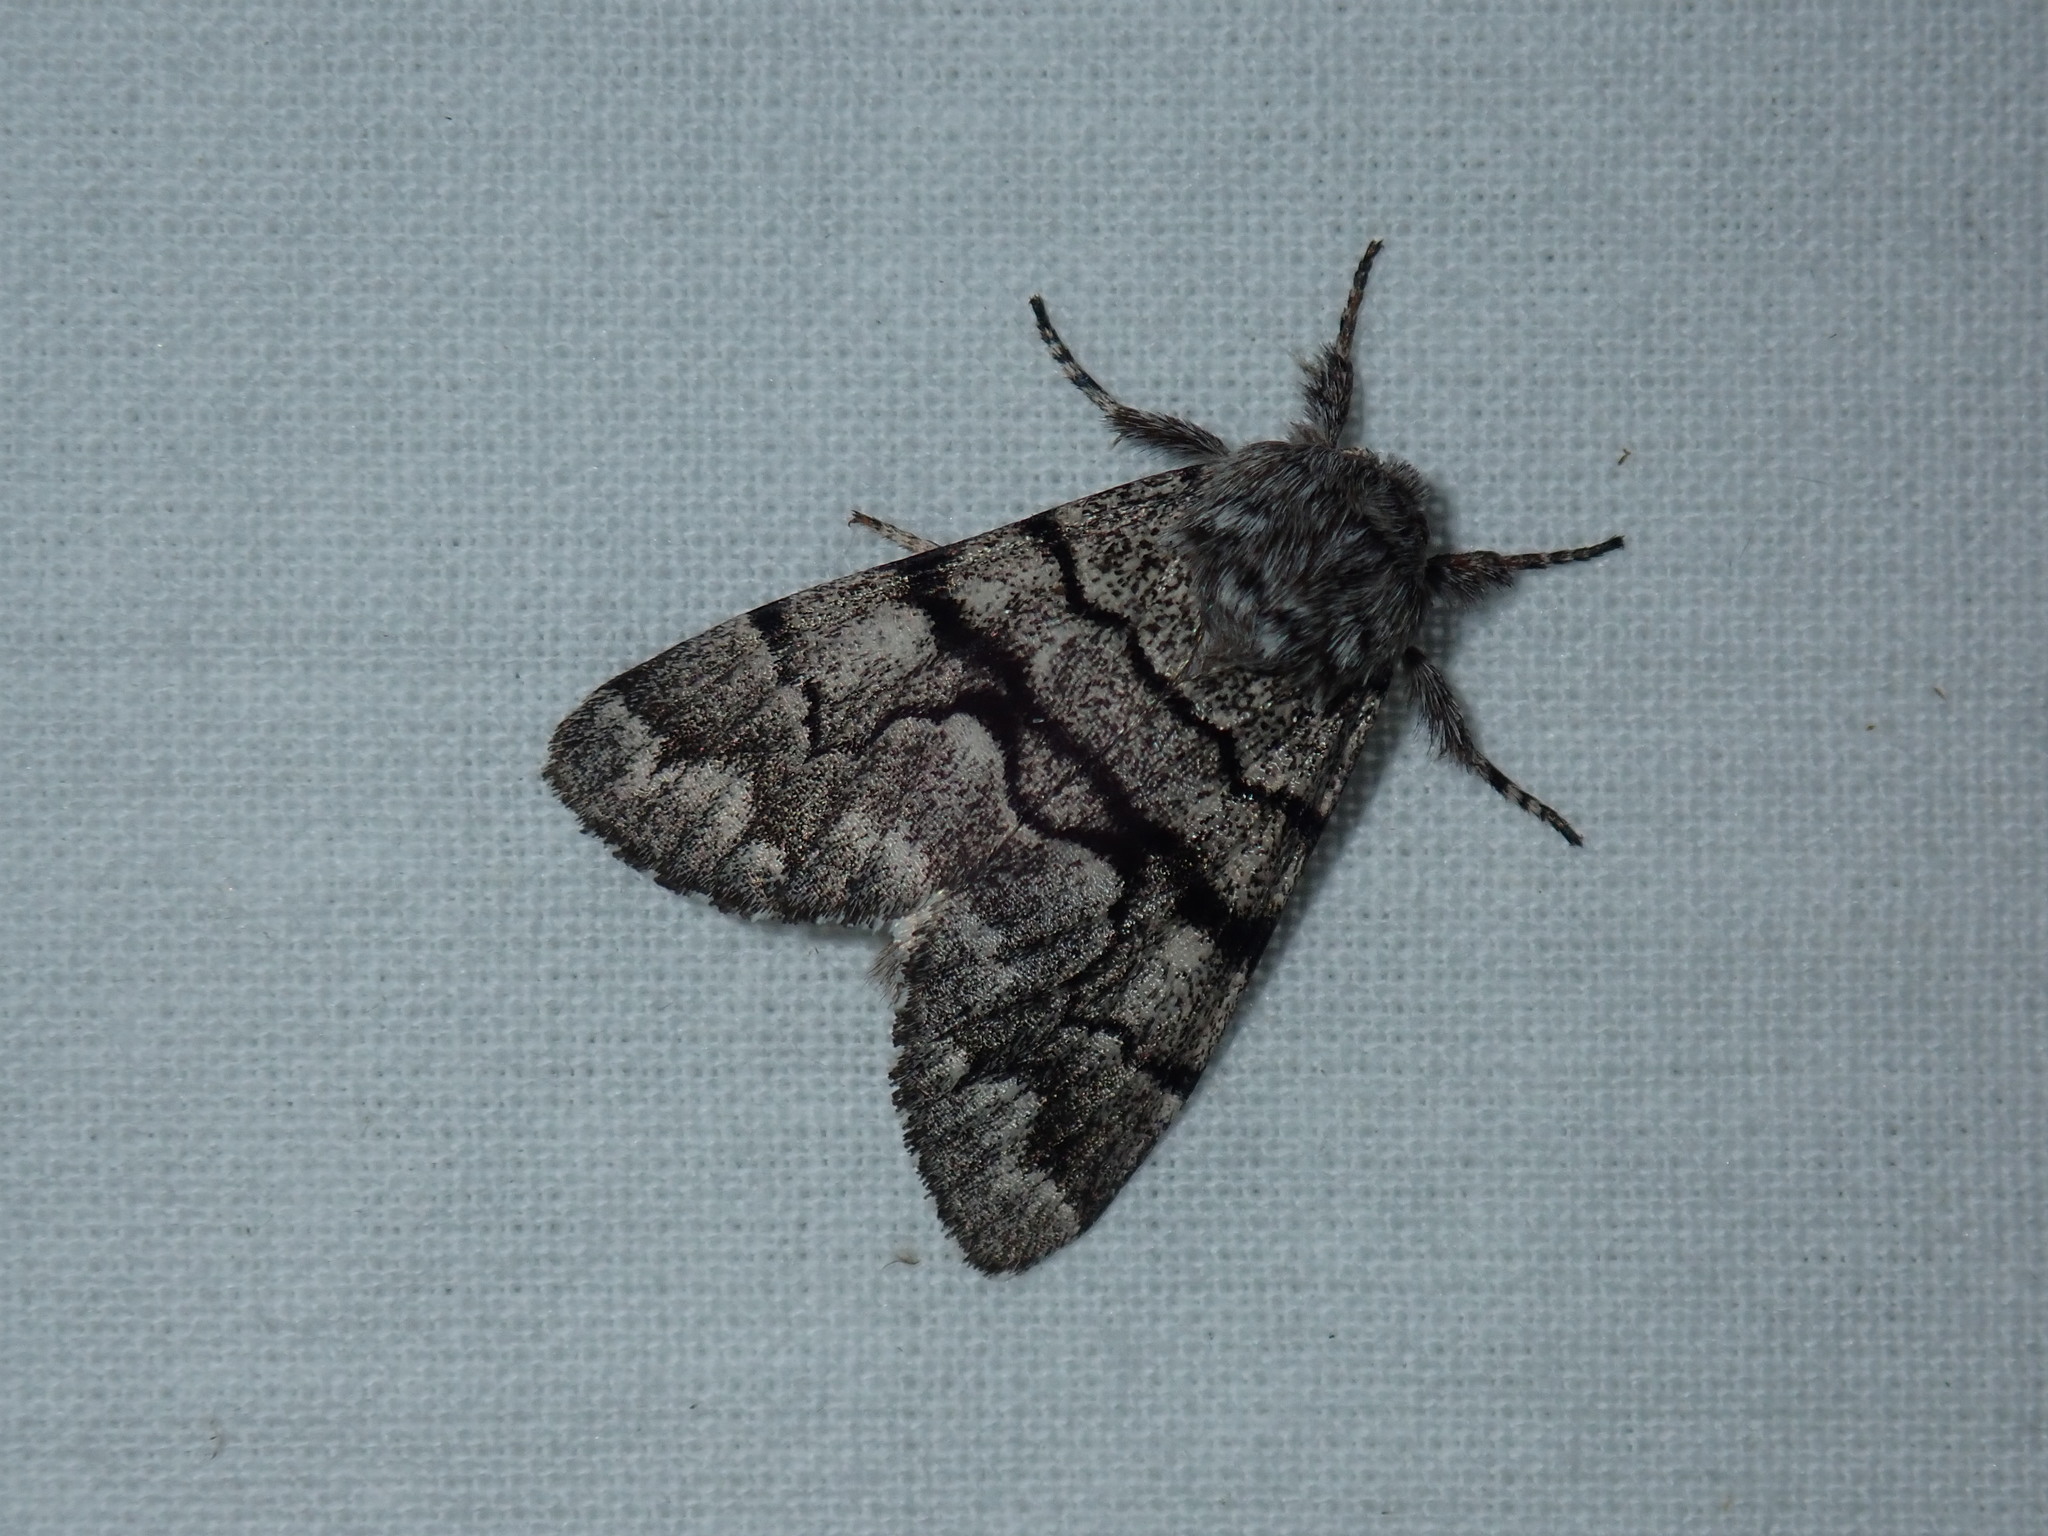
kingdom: Animalia
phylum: Arthropoda
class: Insecta
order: Lepidoptera
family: Noctuidae
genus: Panthea
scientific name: Panthea furcilla
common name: Eastern panthea moth
